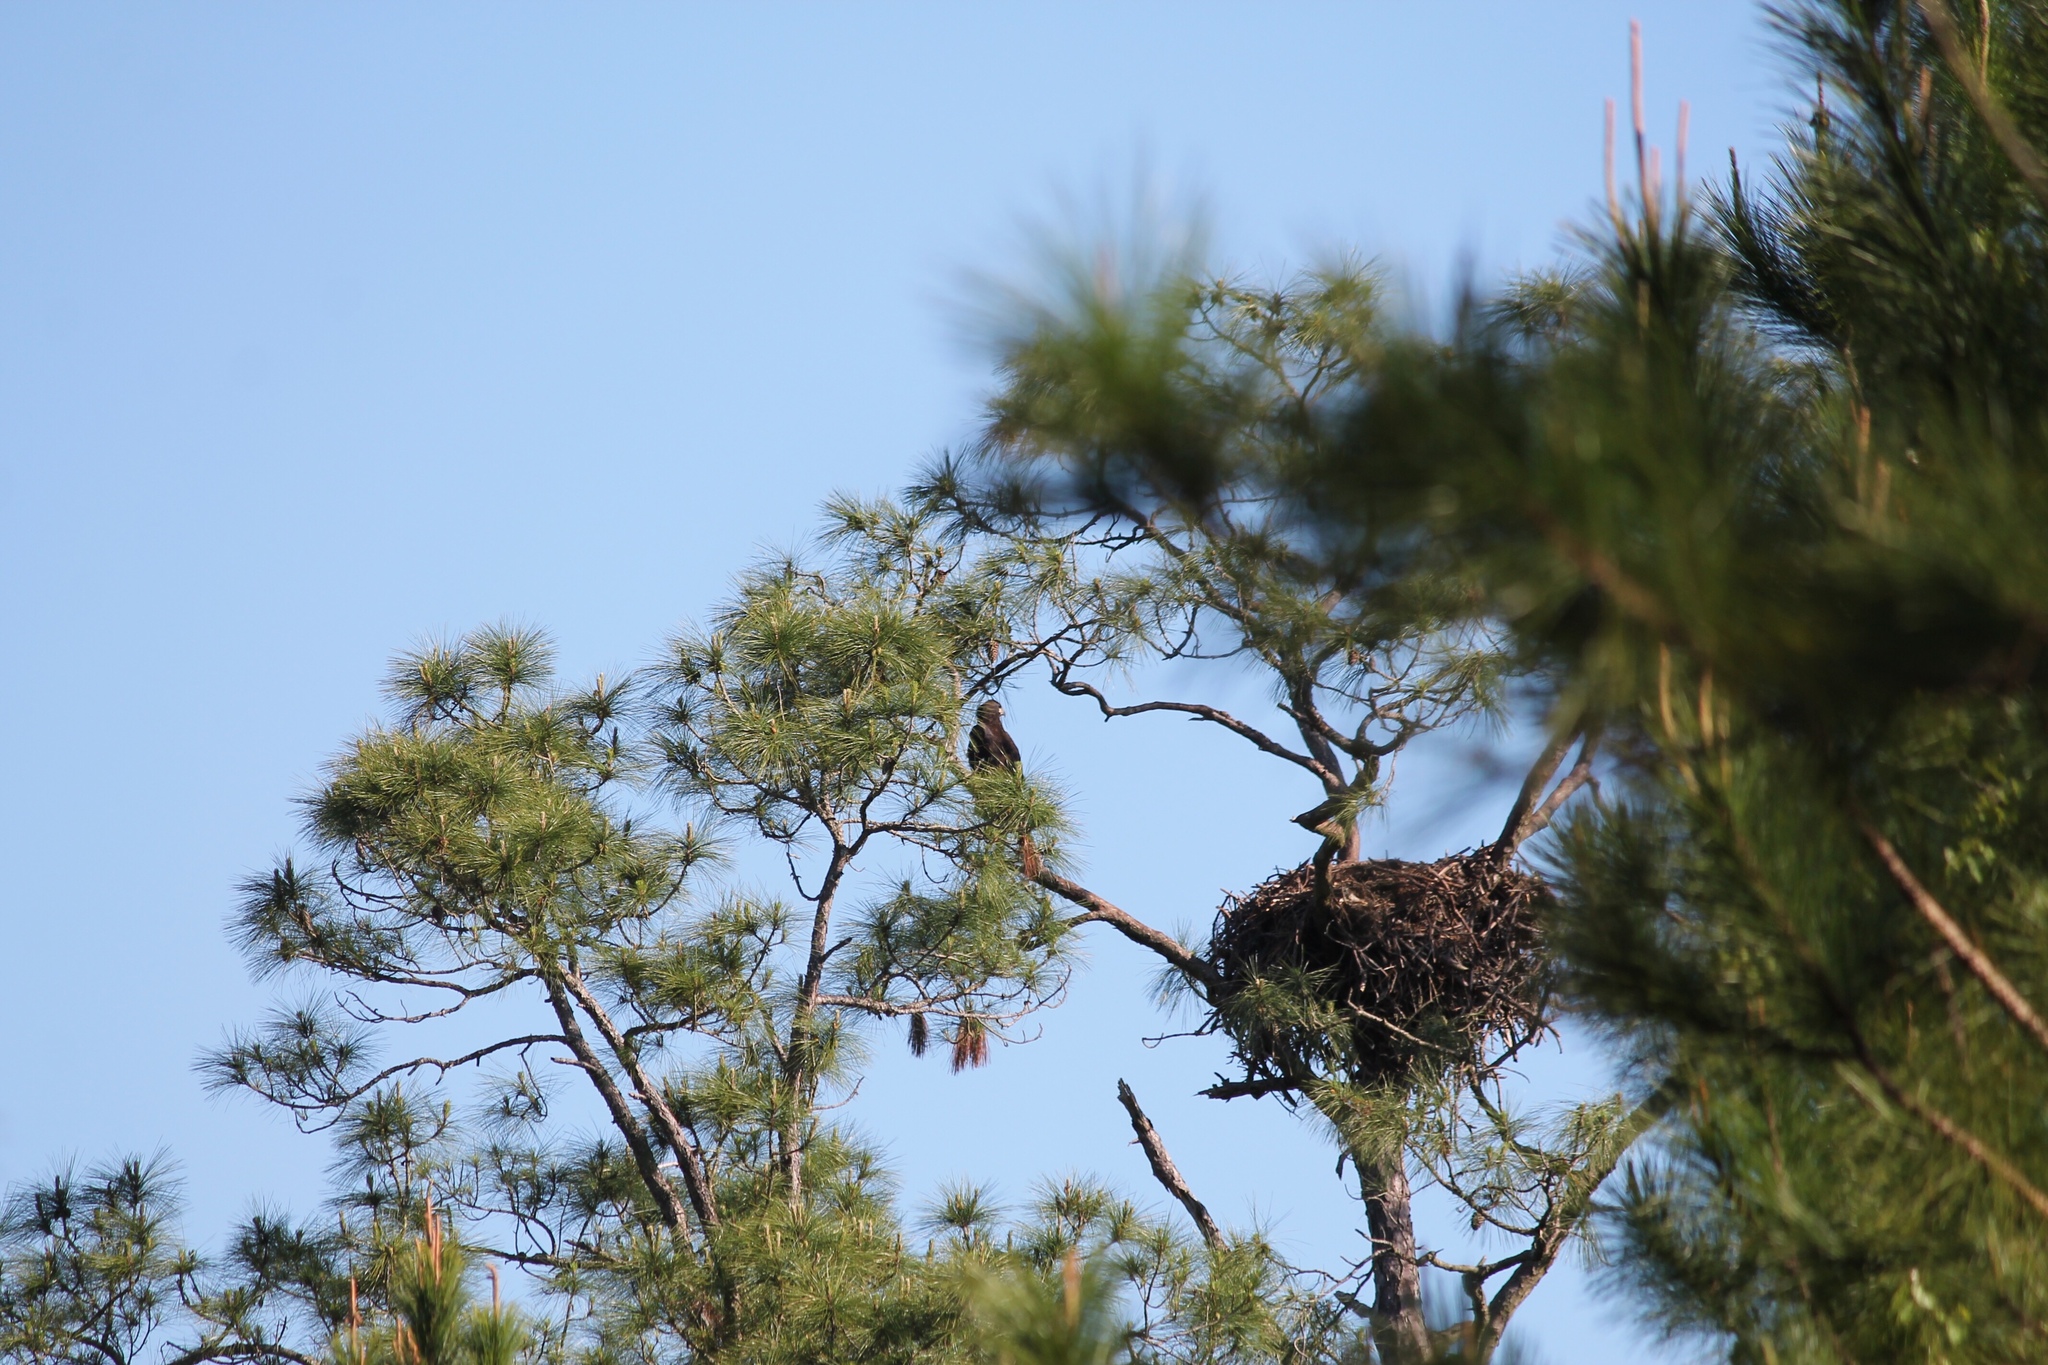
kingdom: Animalia
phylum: Chordata
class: Aves
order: Accipitriformes
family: Accipitridae
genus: Haliaeetus
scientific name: Haliaeetus leucocephalus
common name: Bald eagle
